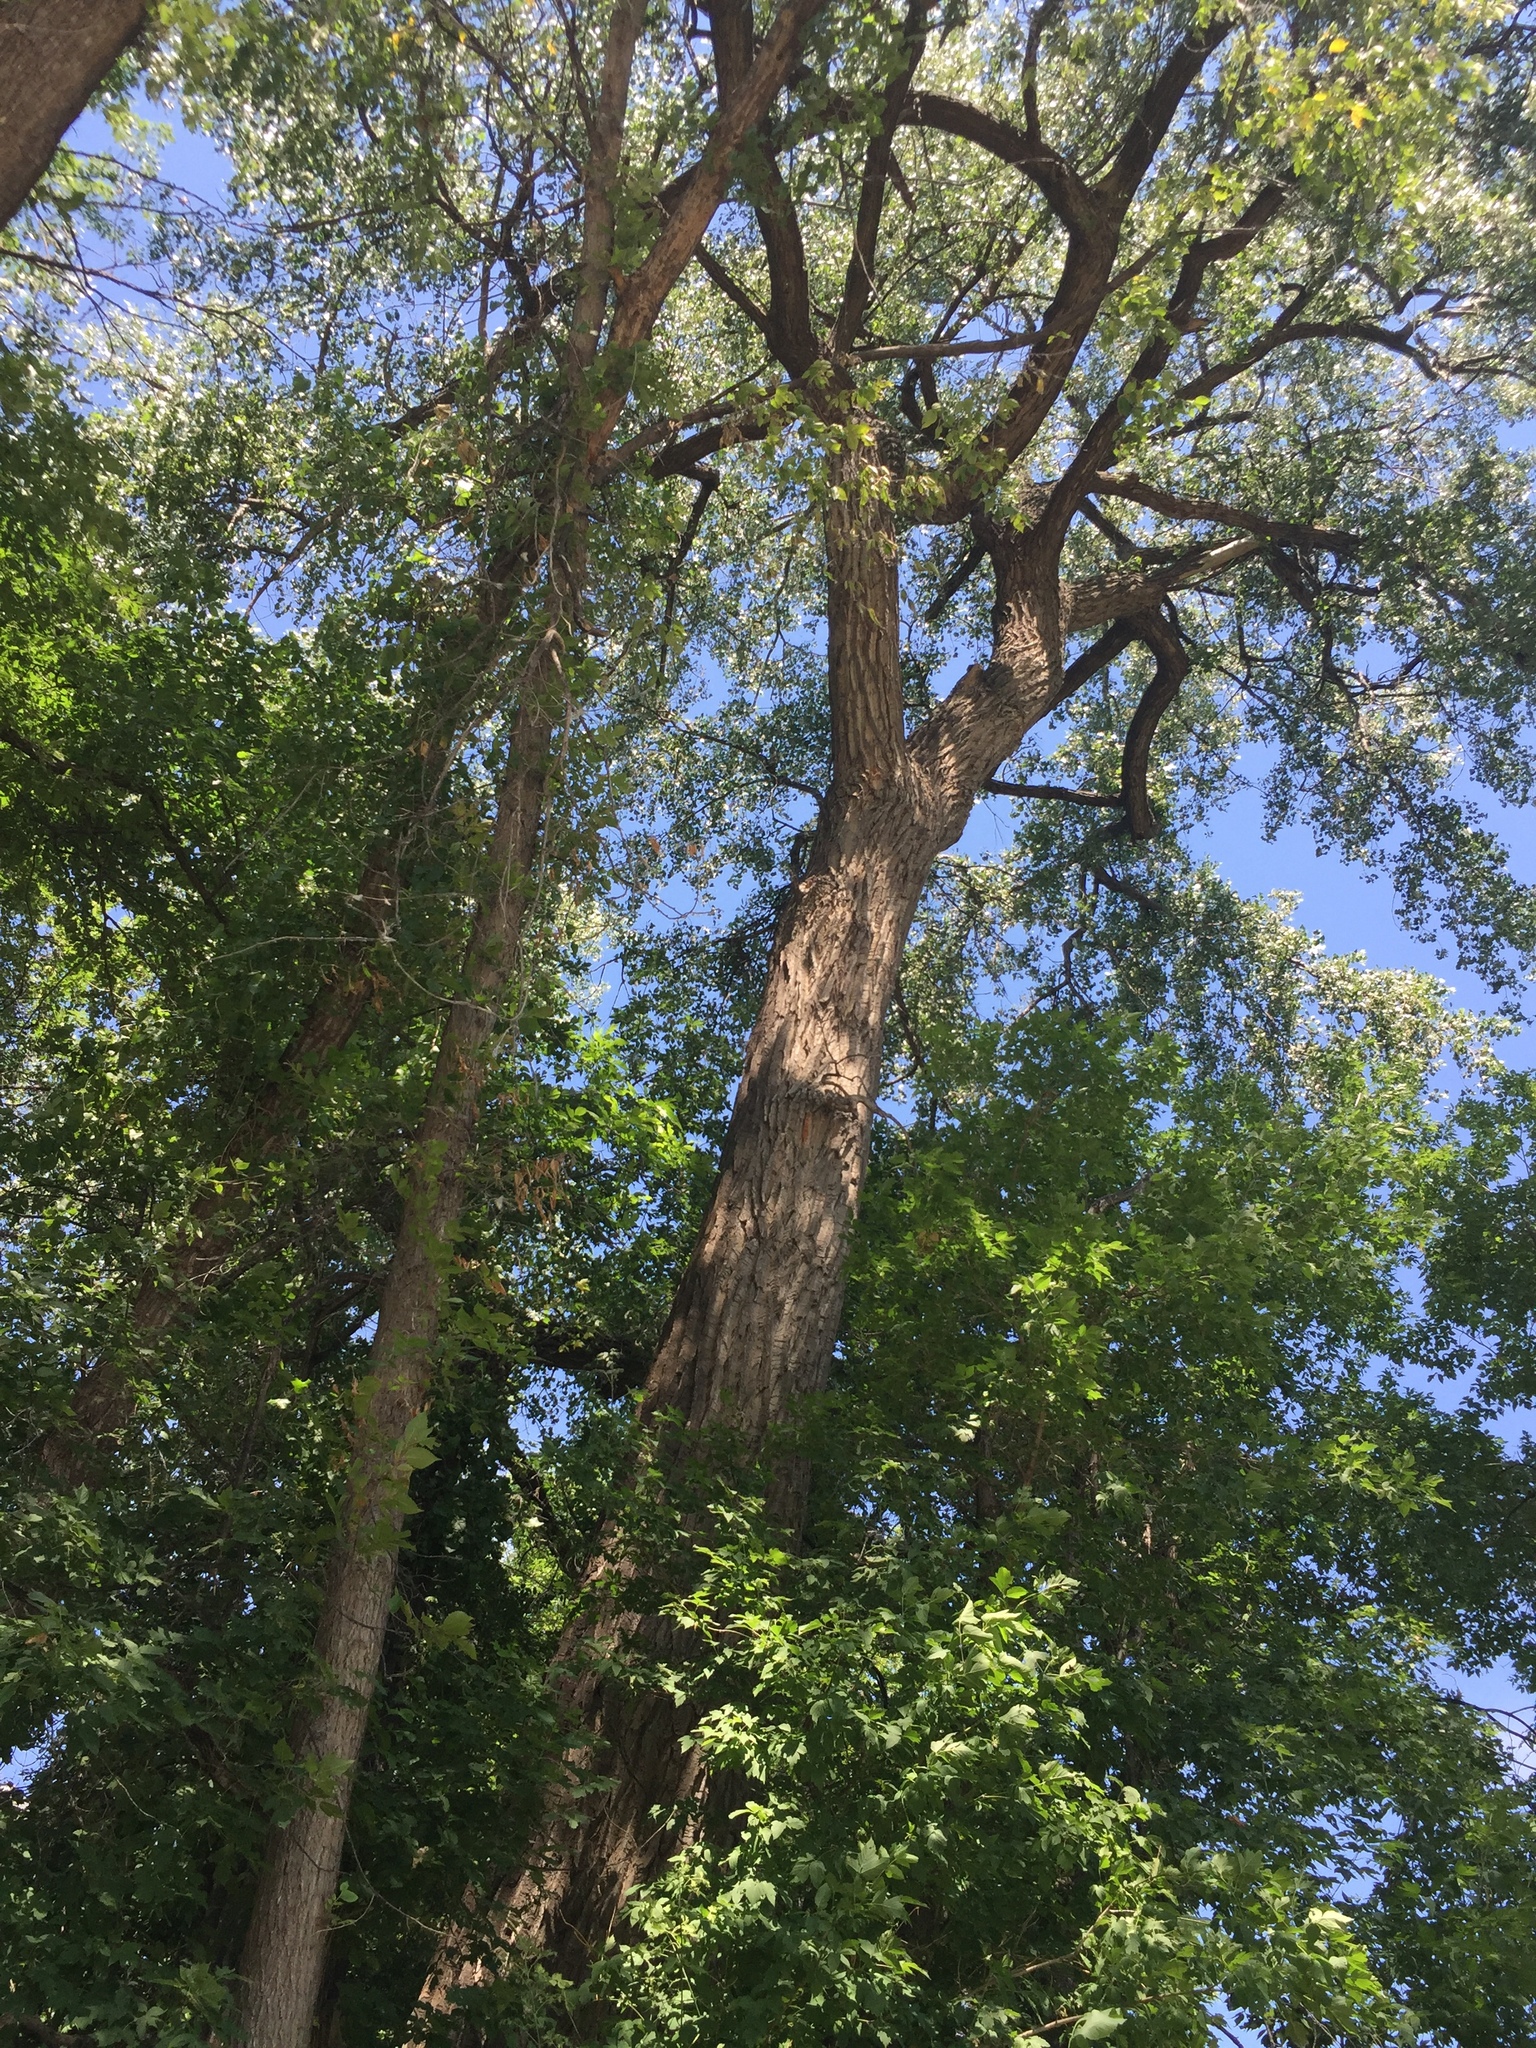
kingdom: Plantae
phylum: Tracheophyta
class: Magnoliopsida
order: Malpighiales
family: Salicaceae
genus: Populus
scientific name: Populus deltoides
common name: Eastern cottonwood
